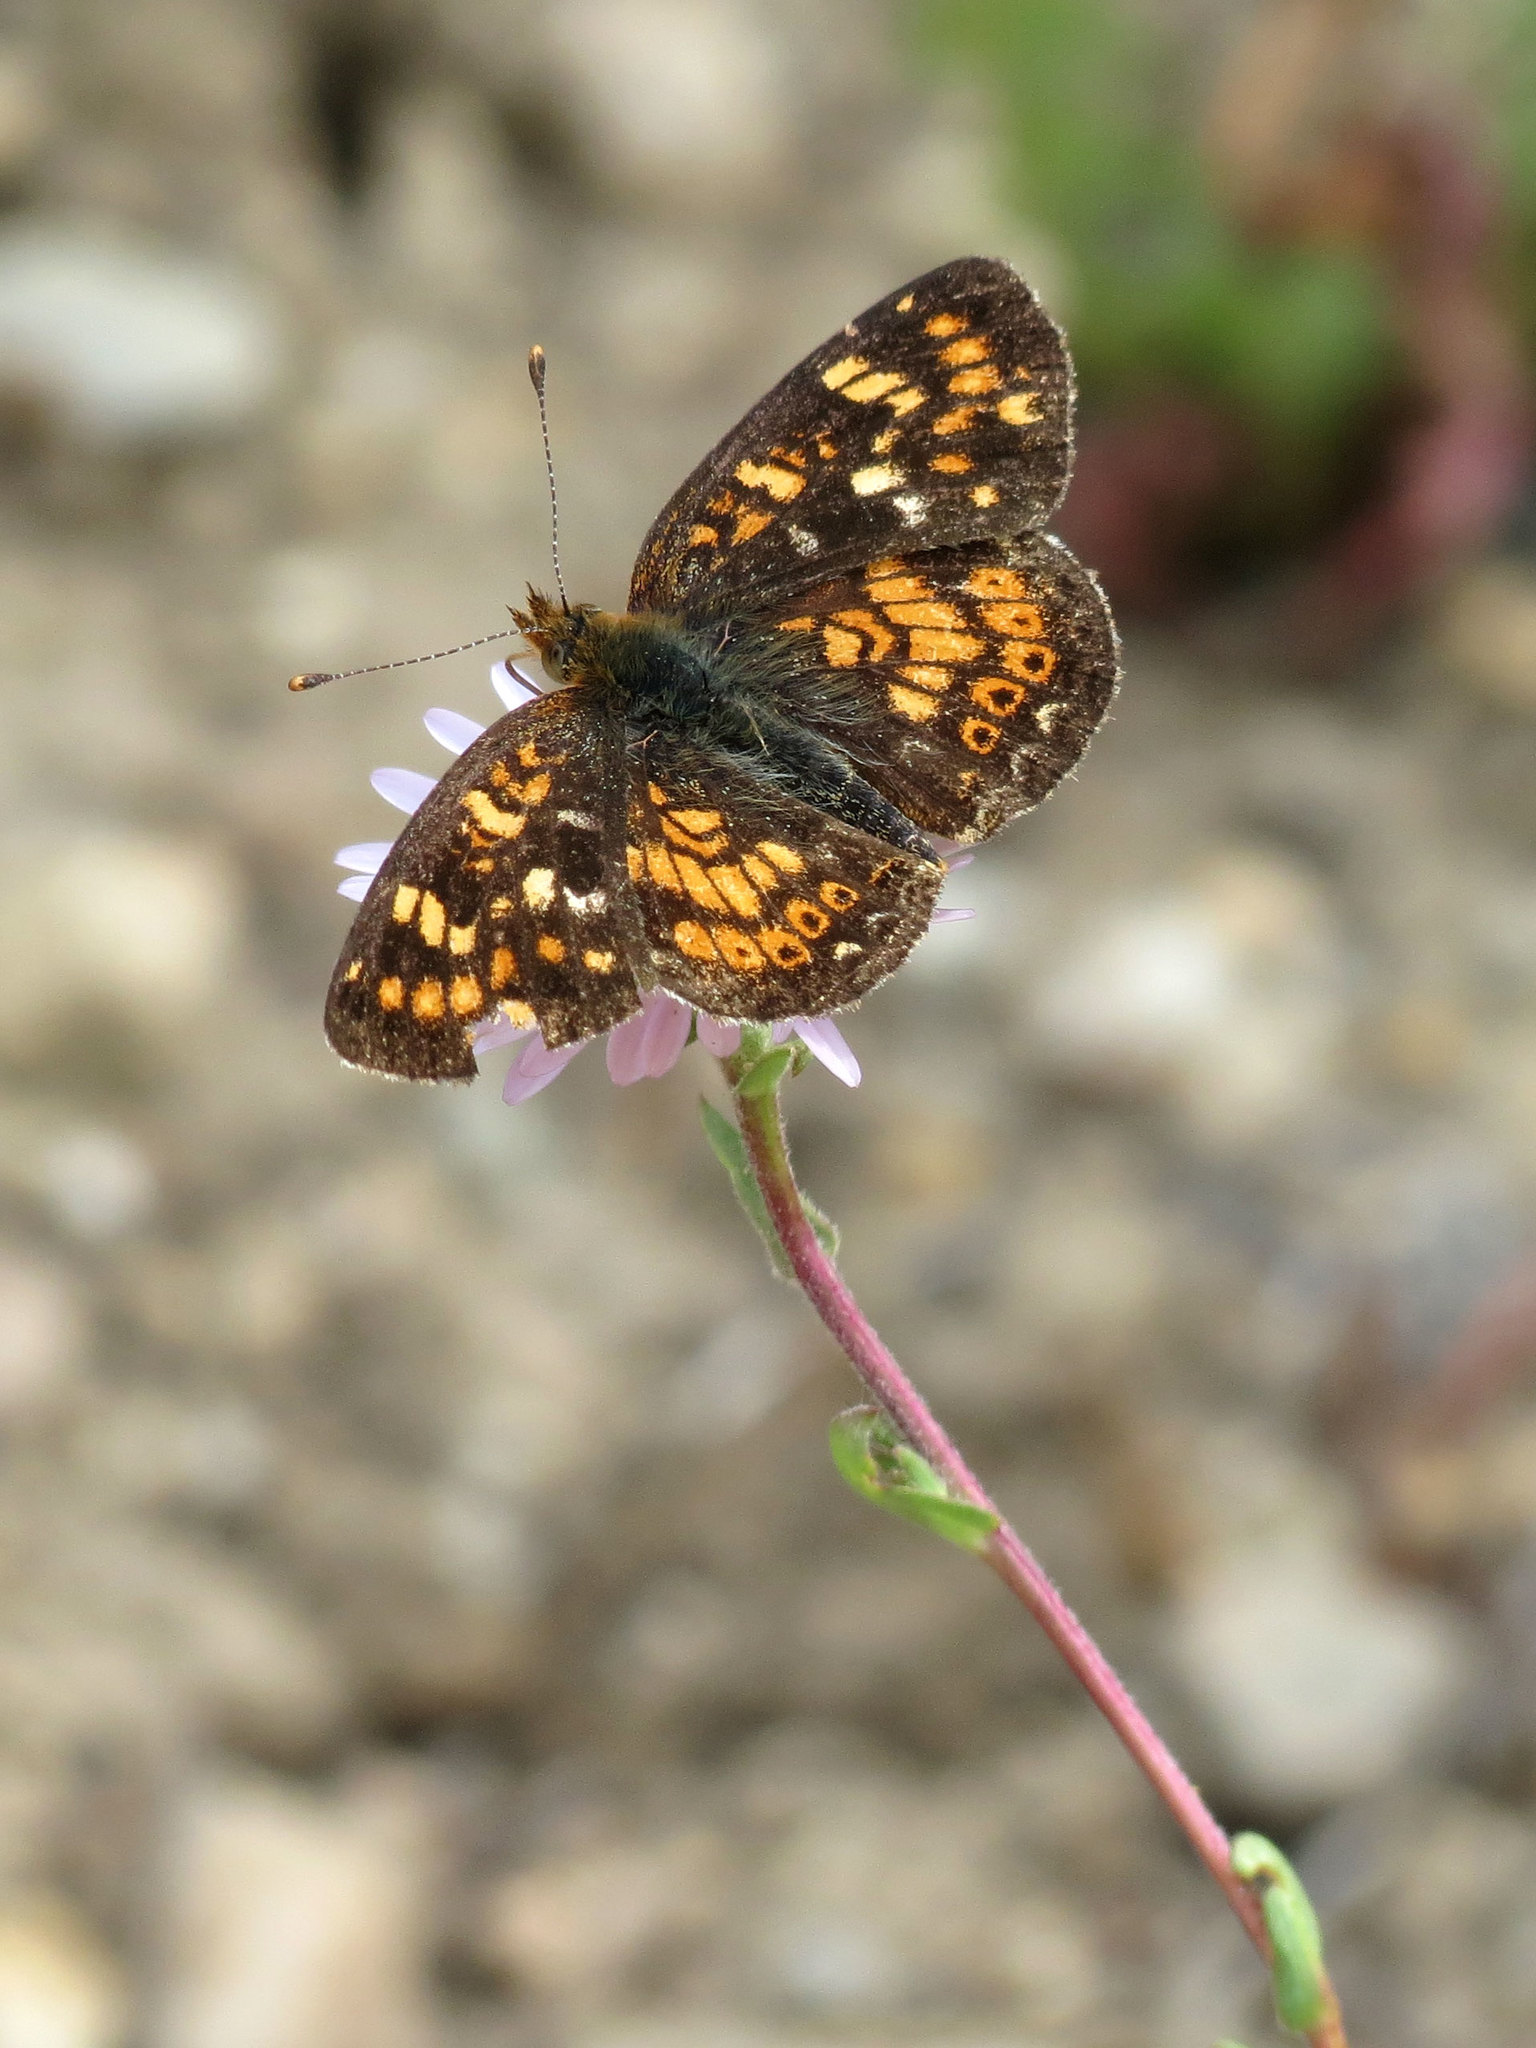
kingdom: Animalia
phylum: Arthropoda
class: Insecta
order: Lepidoptera
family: Nymphalidae
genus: Phyciodes
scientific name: Phyciodes tharos
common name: Pearl crescent
